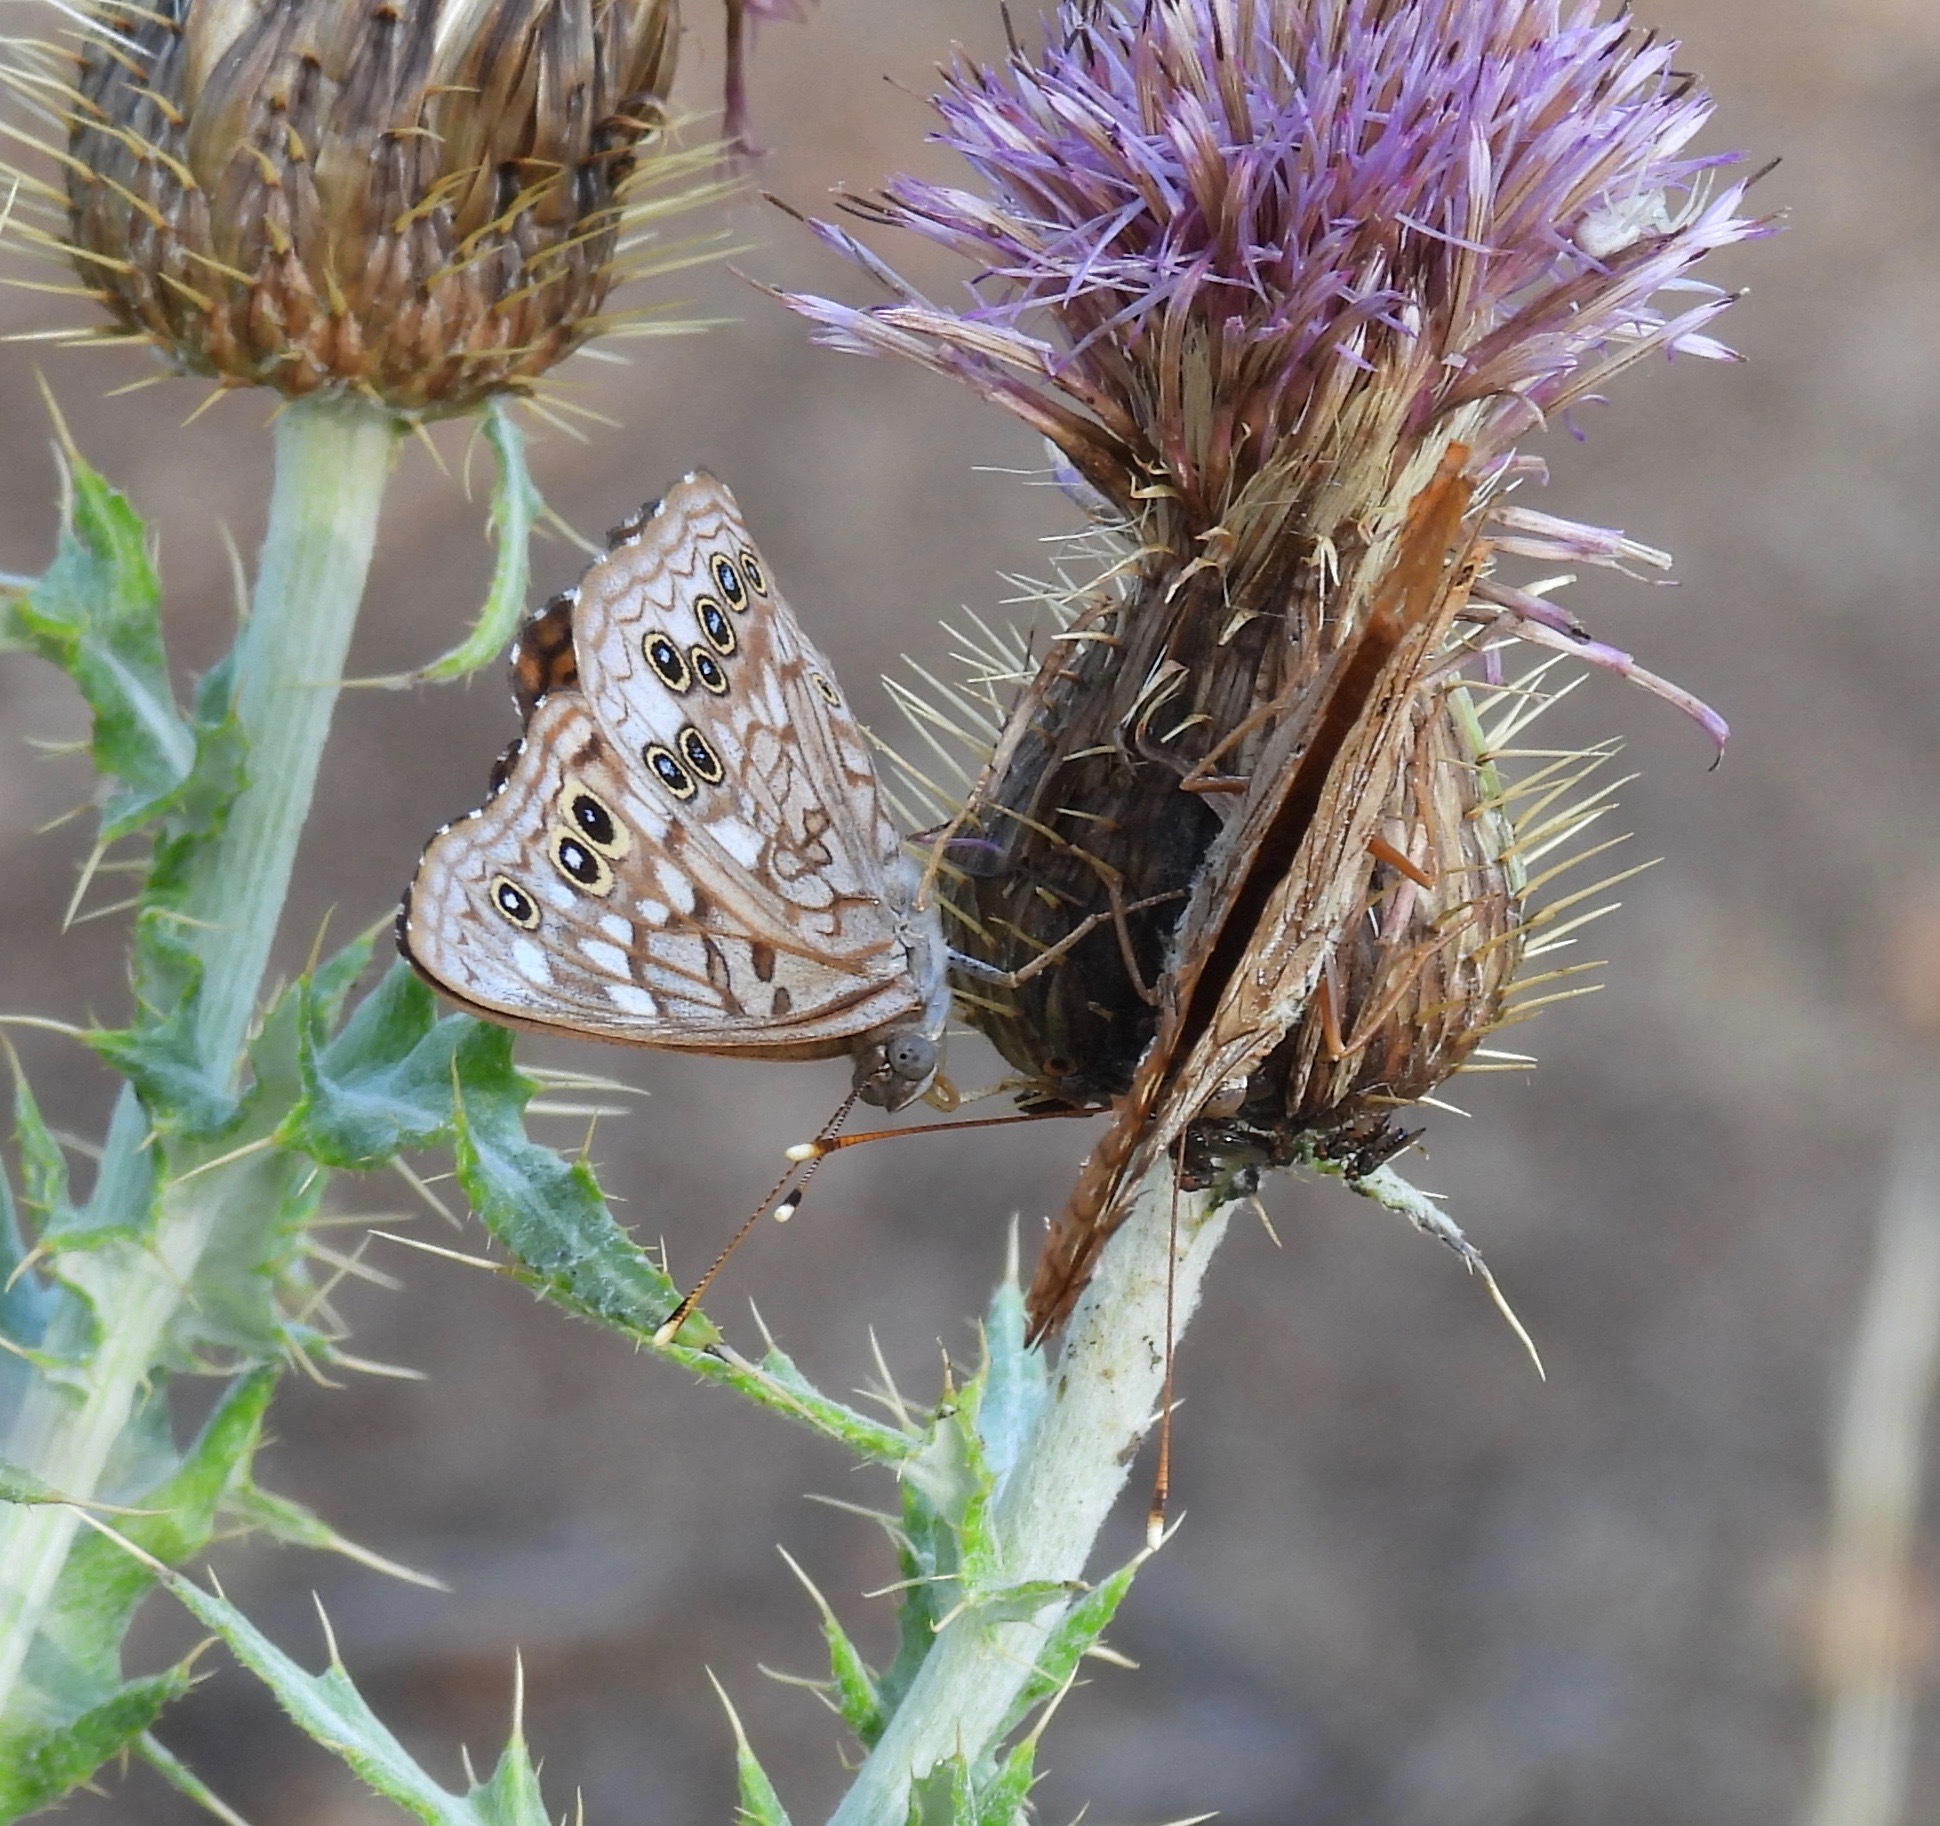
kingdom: Animalia
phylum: Arthropoda
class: Insecta
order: Lepidoptera
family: Nymphalidae
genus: Asterocampa
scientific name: Asterocampa celtis
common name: Hackberry emperor
